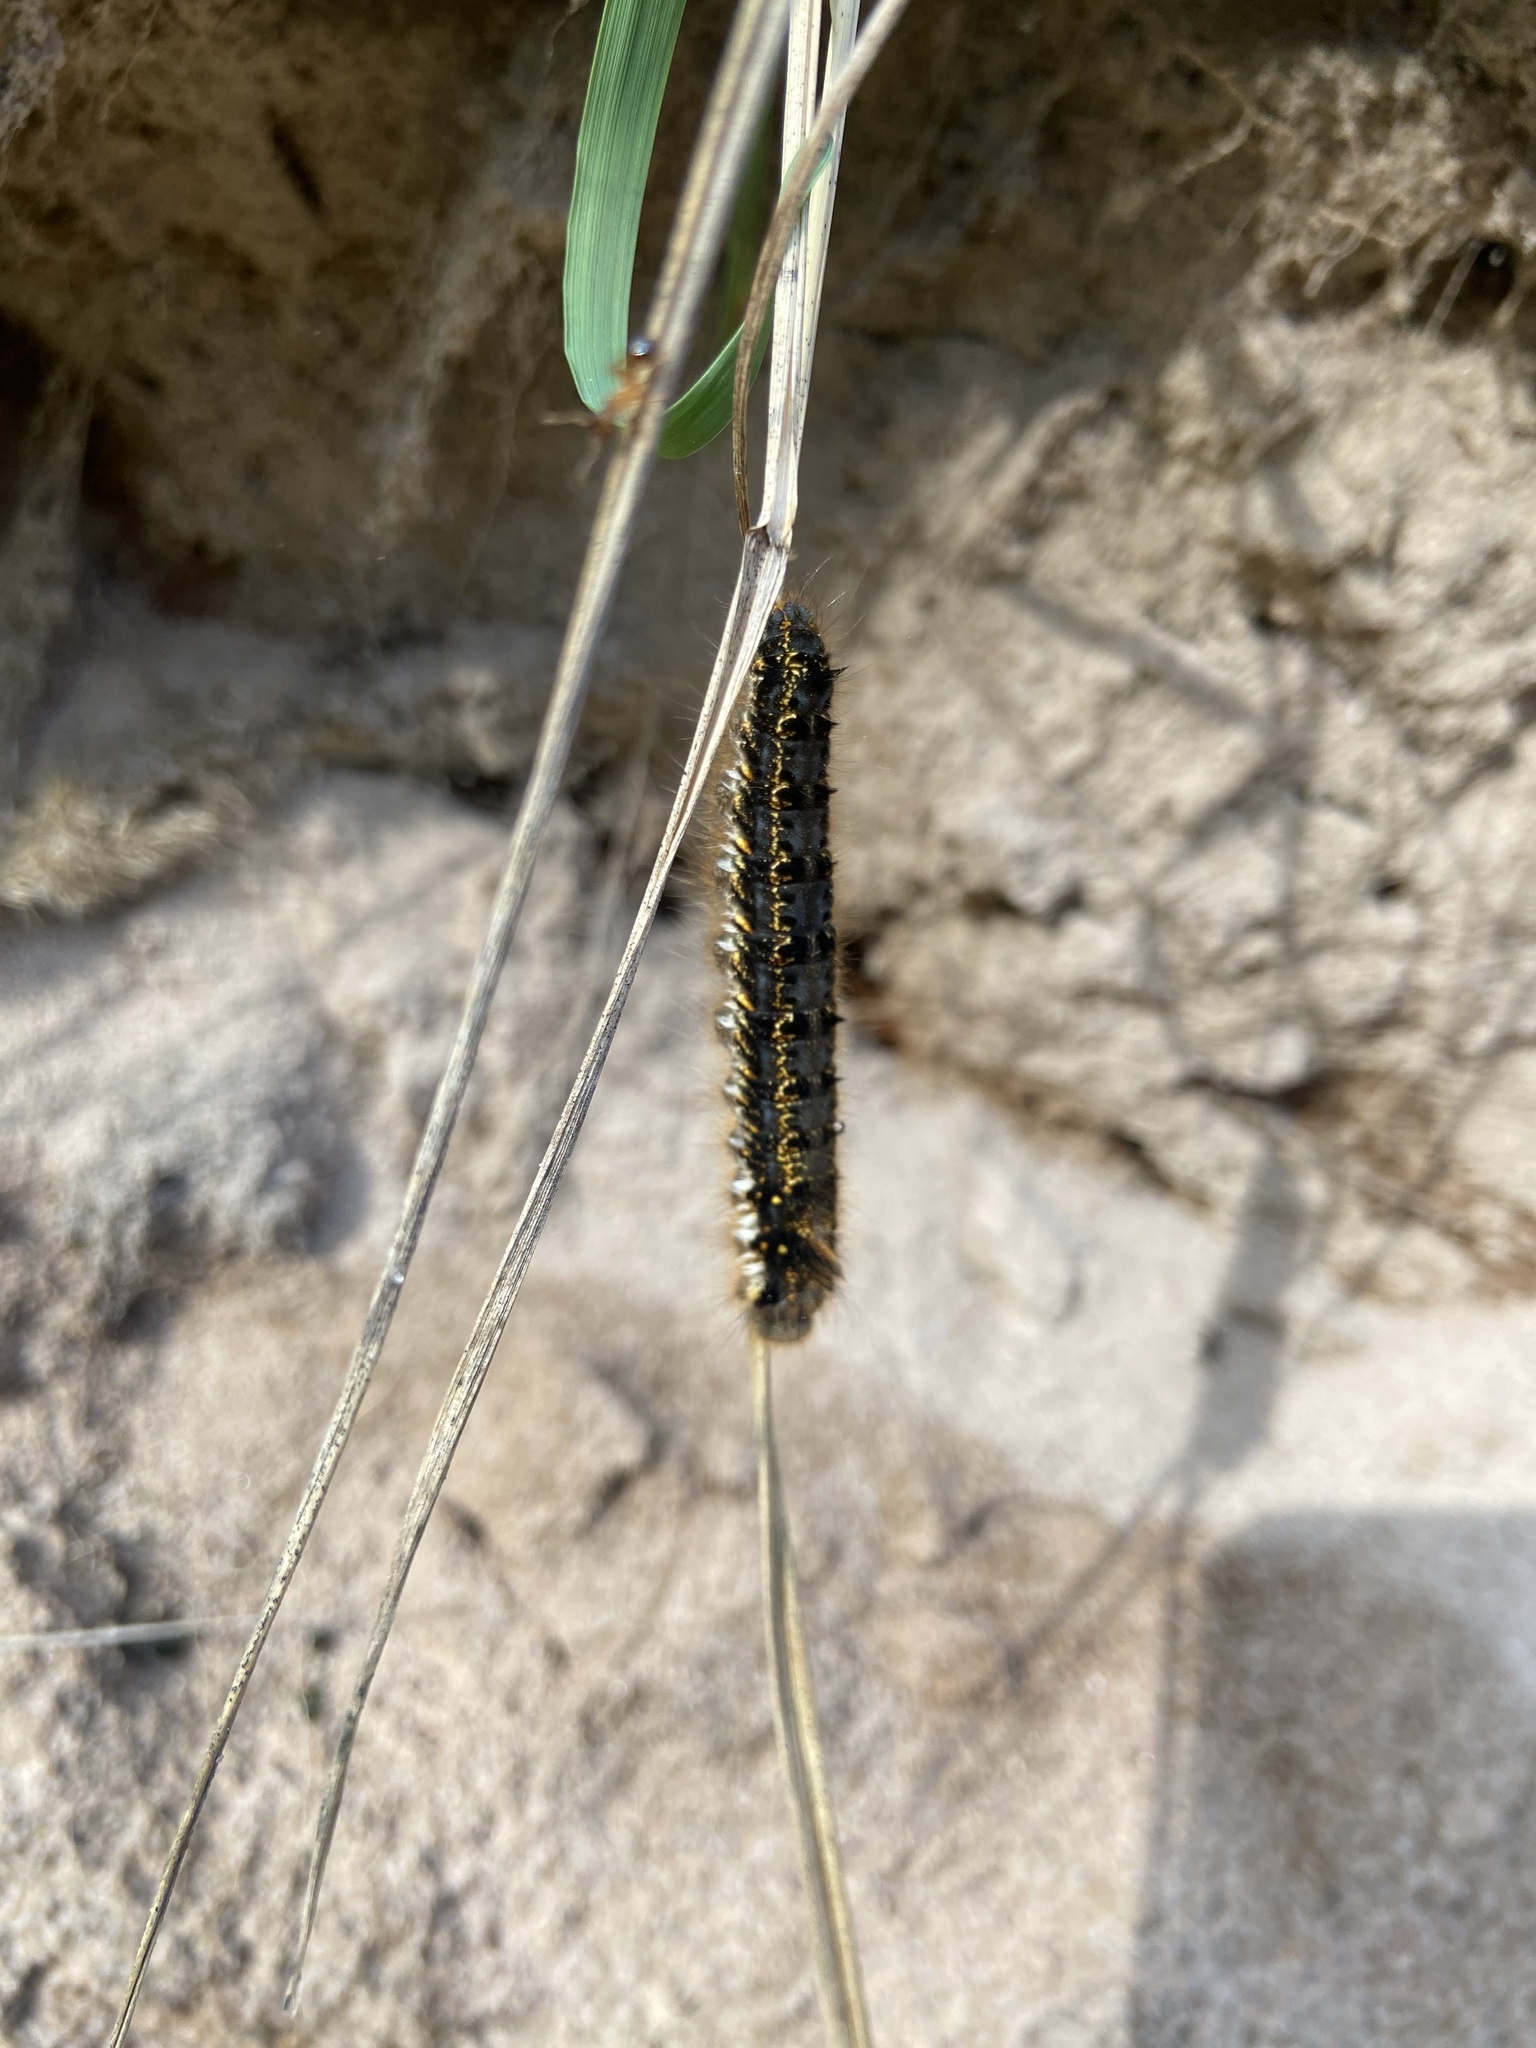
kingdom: Animalia
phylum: Arthropoda
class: Insecta
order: Lepidoptera
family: Lasiocampidae
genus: Euthrix
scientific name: Euthrix potatoria
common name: Drinker
